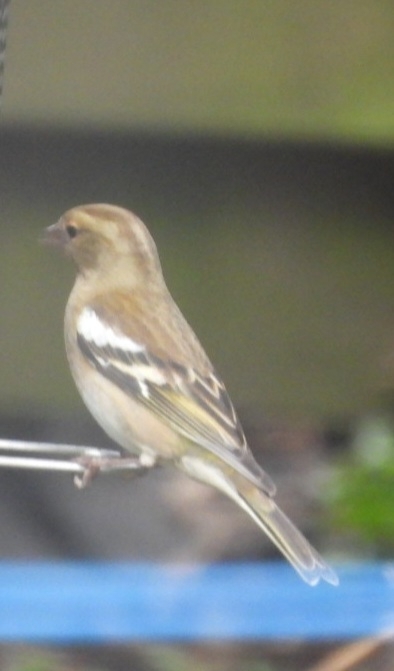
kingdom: Animalia
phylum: Chordata
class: Aves
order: Passeriformes
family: Fringillidae
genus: Fringilla
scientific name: Fringilla coelebs
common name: Common chaffinch
